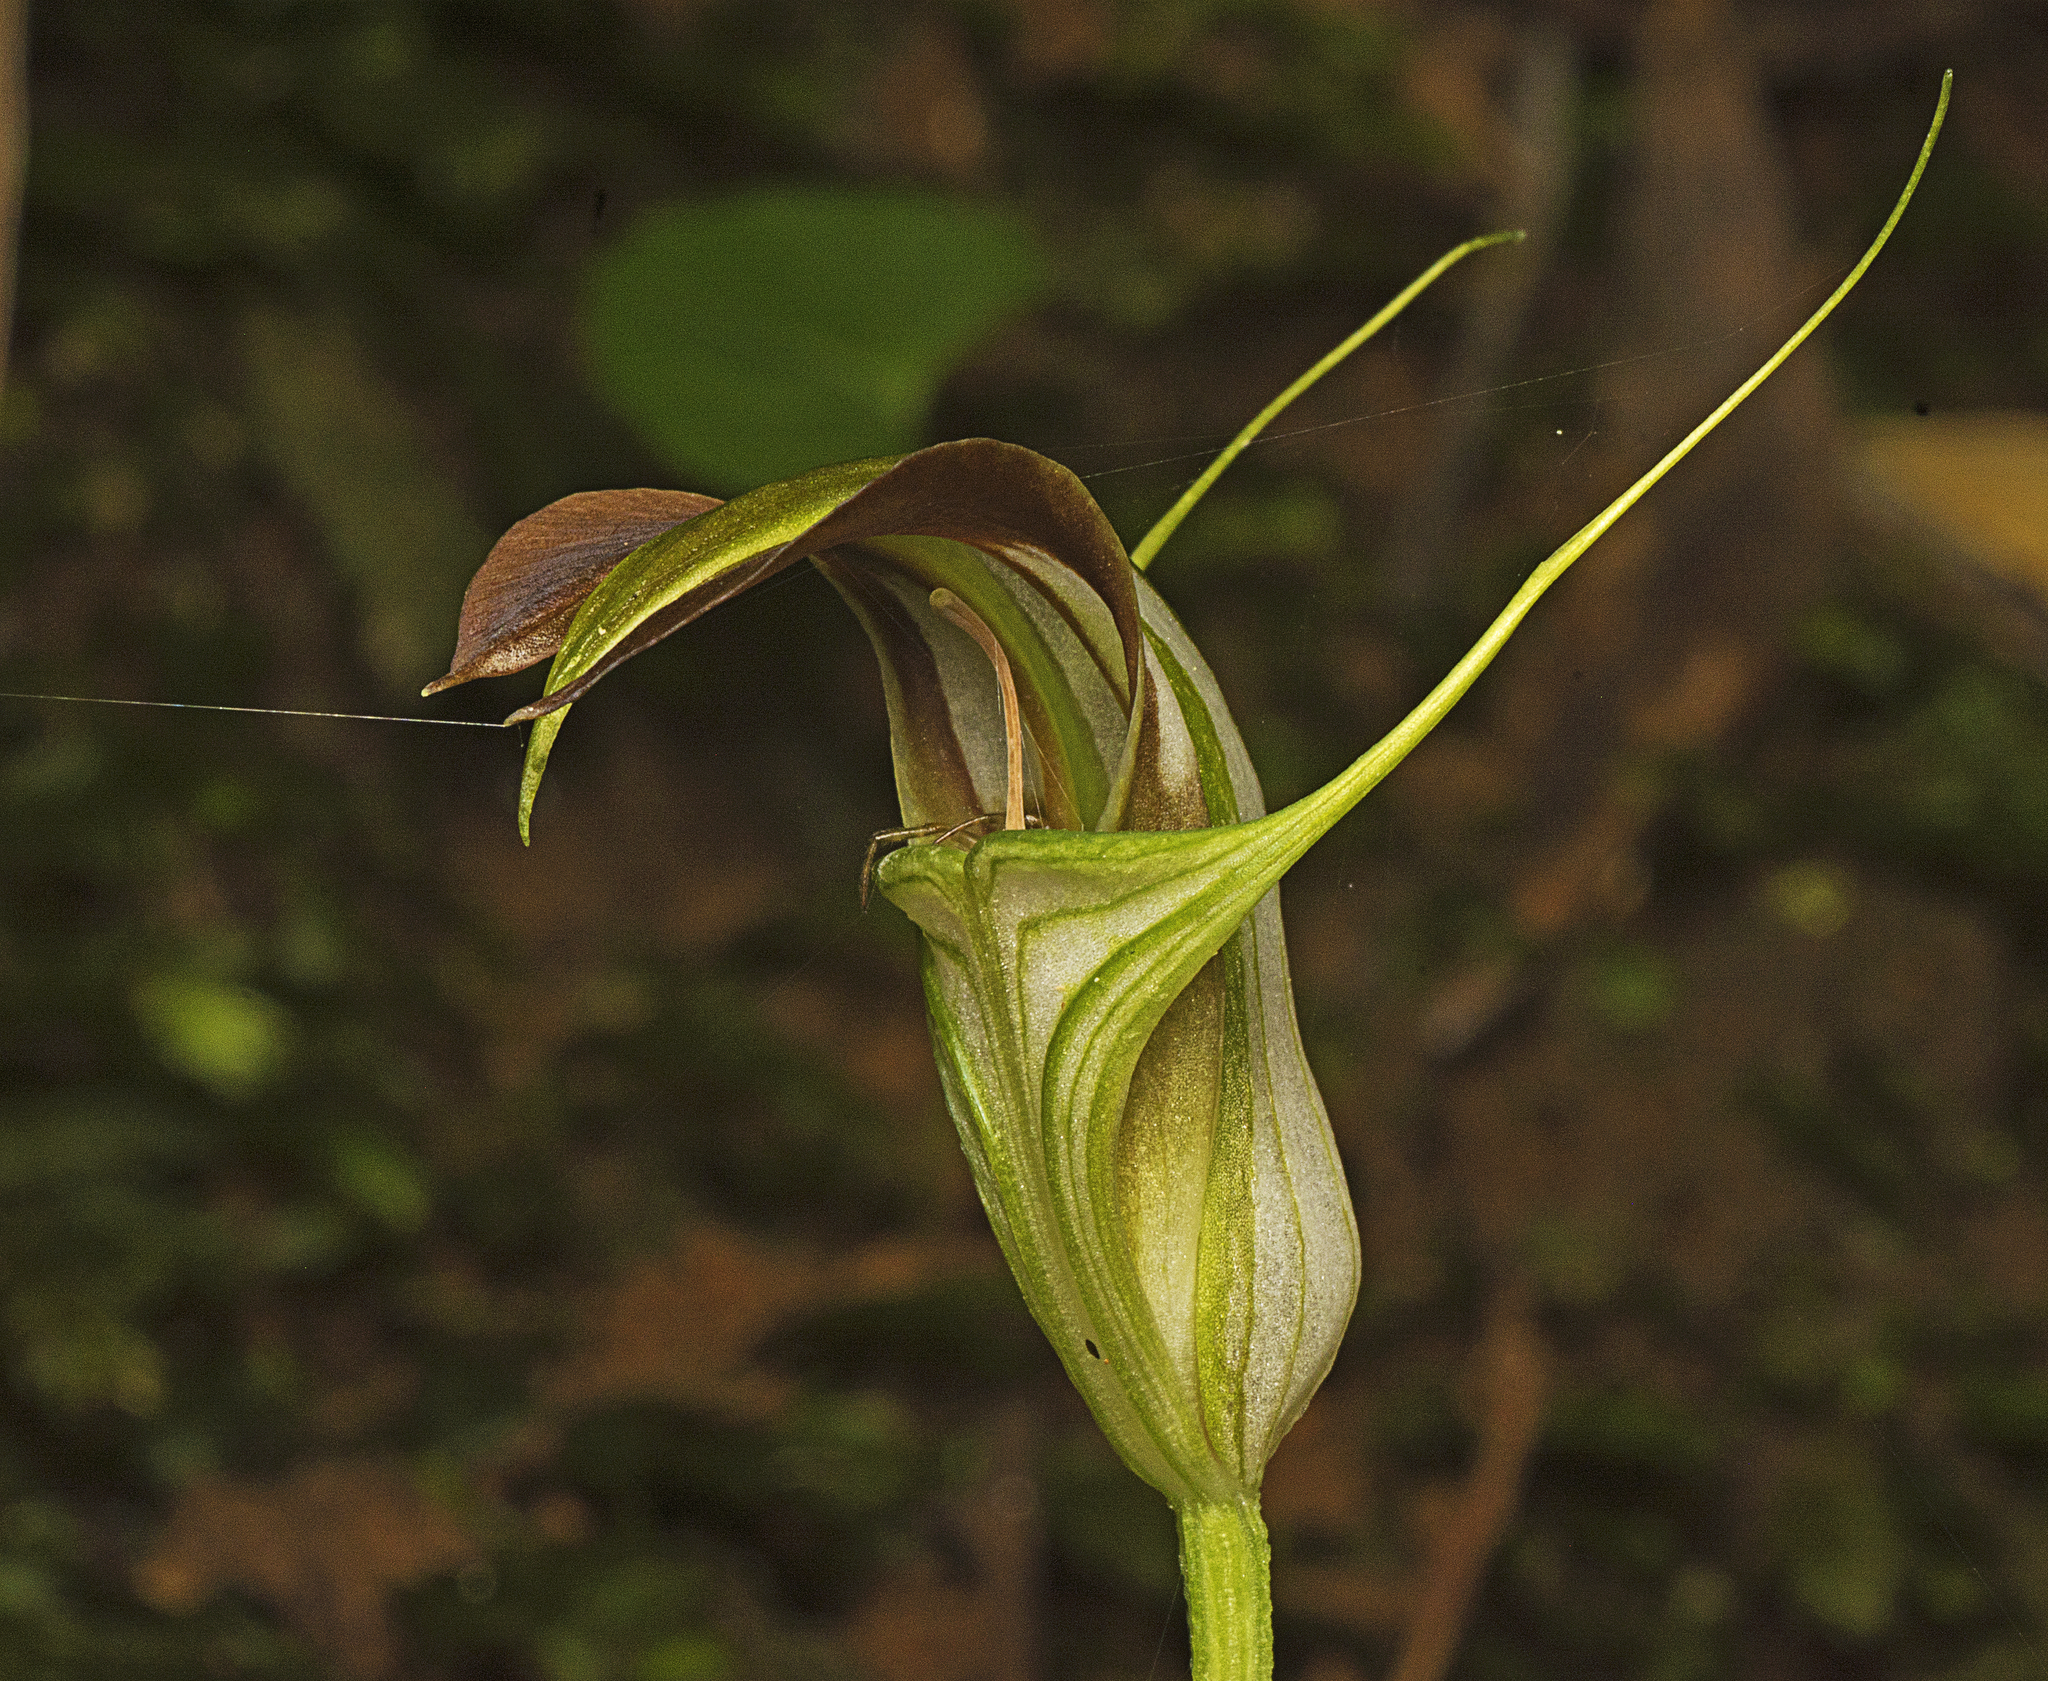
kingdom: Plantae
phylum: Tracheophyta
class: Liliopsida
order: Asparagales
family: Orchidaceae
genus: Pterostylis
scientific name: Pterostylis grandiflora
